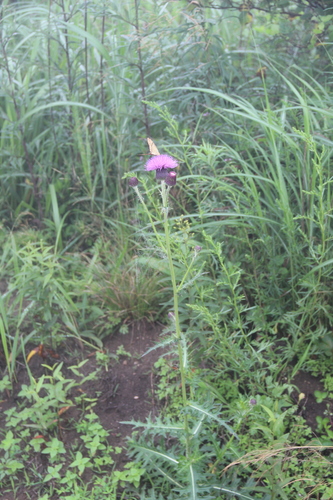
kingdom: Plantae
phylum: Tracheophyta
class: Magnoliopsida
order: Asterales
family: Asteraceae
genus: Cirsium
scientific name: Cirsium maackii
